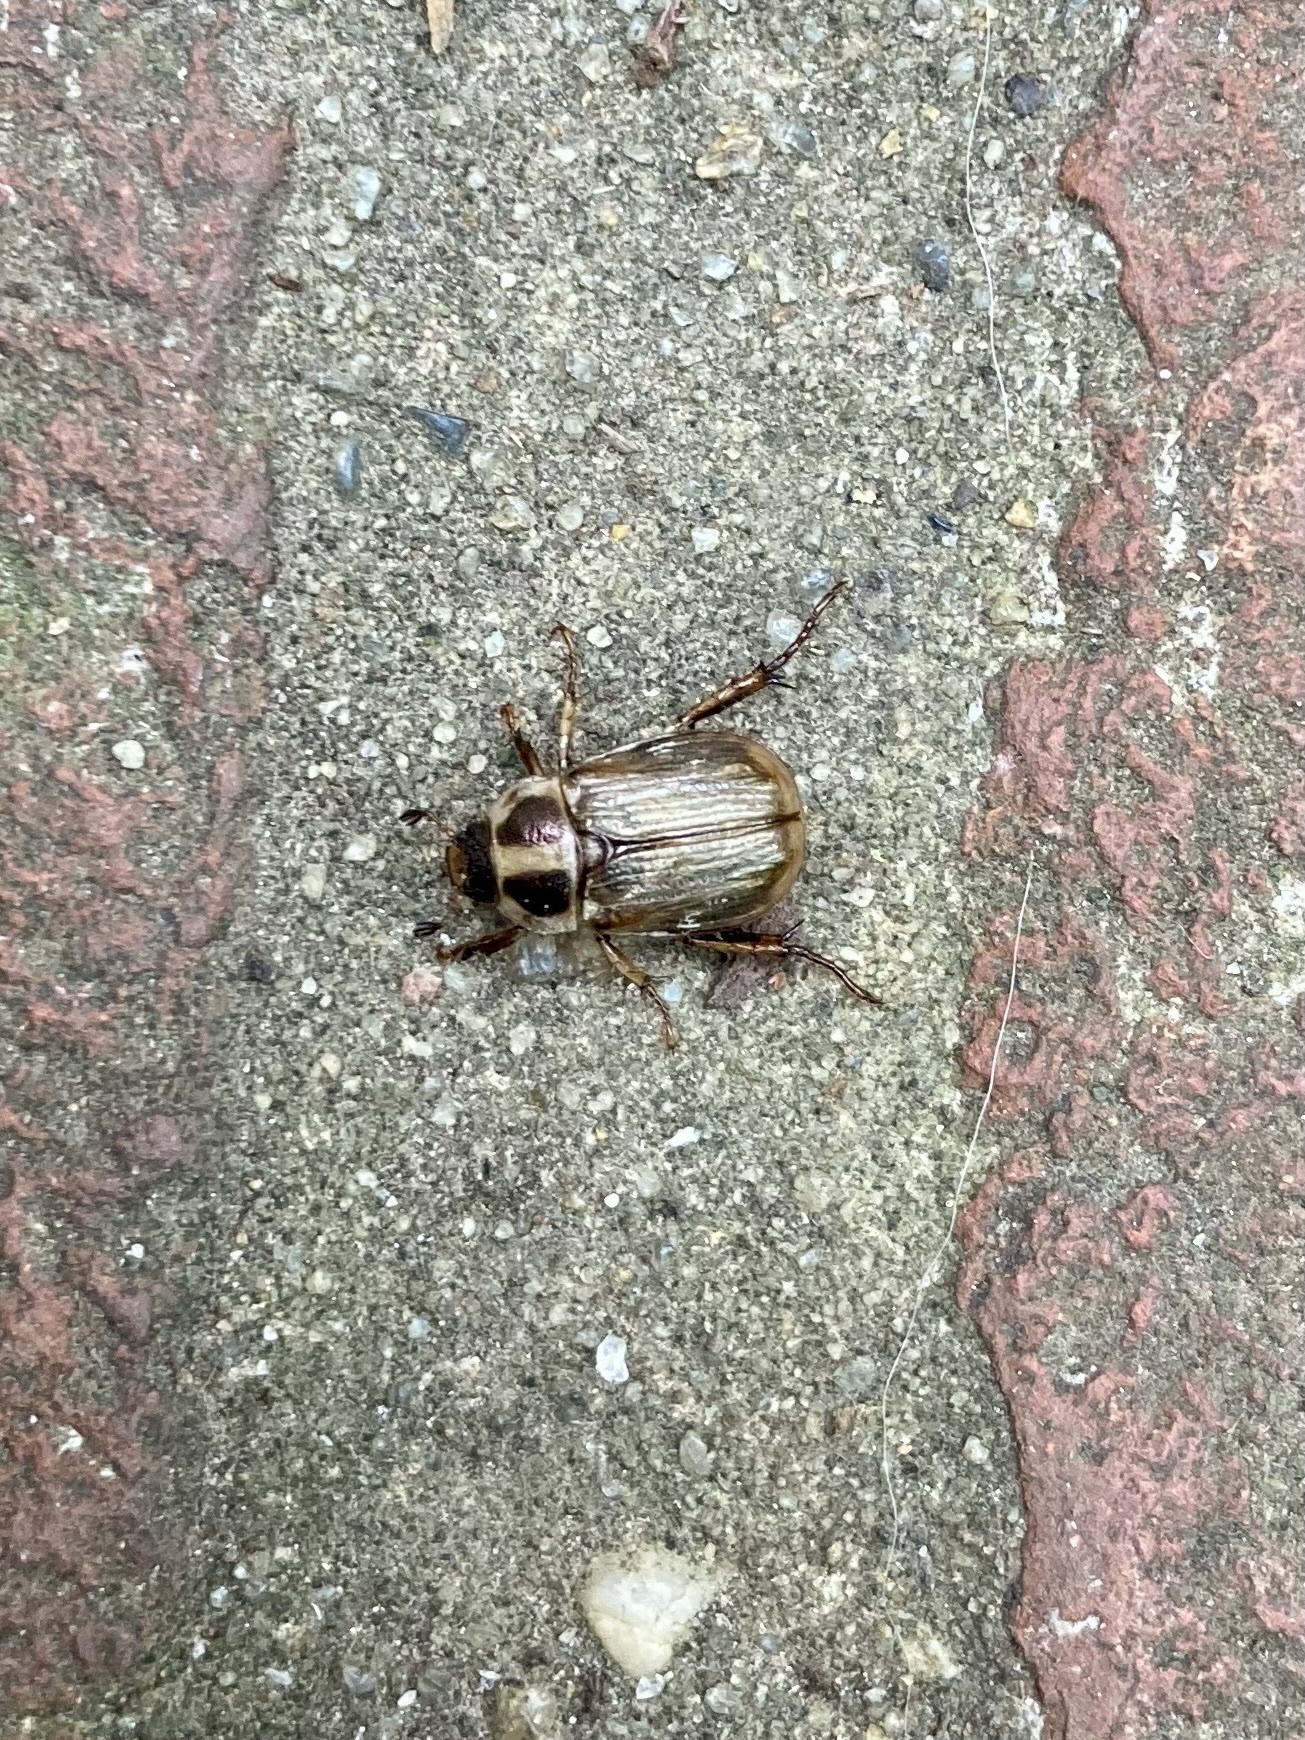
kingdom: Animalia
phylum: Arthropoda
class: Insecta
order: Coleoptera
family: Scarabaeidae
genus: Exomala
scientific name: Exomala orientalis
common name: Oriental beetle
